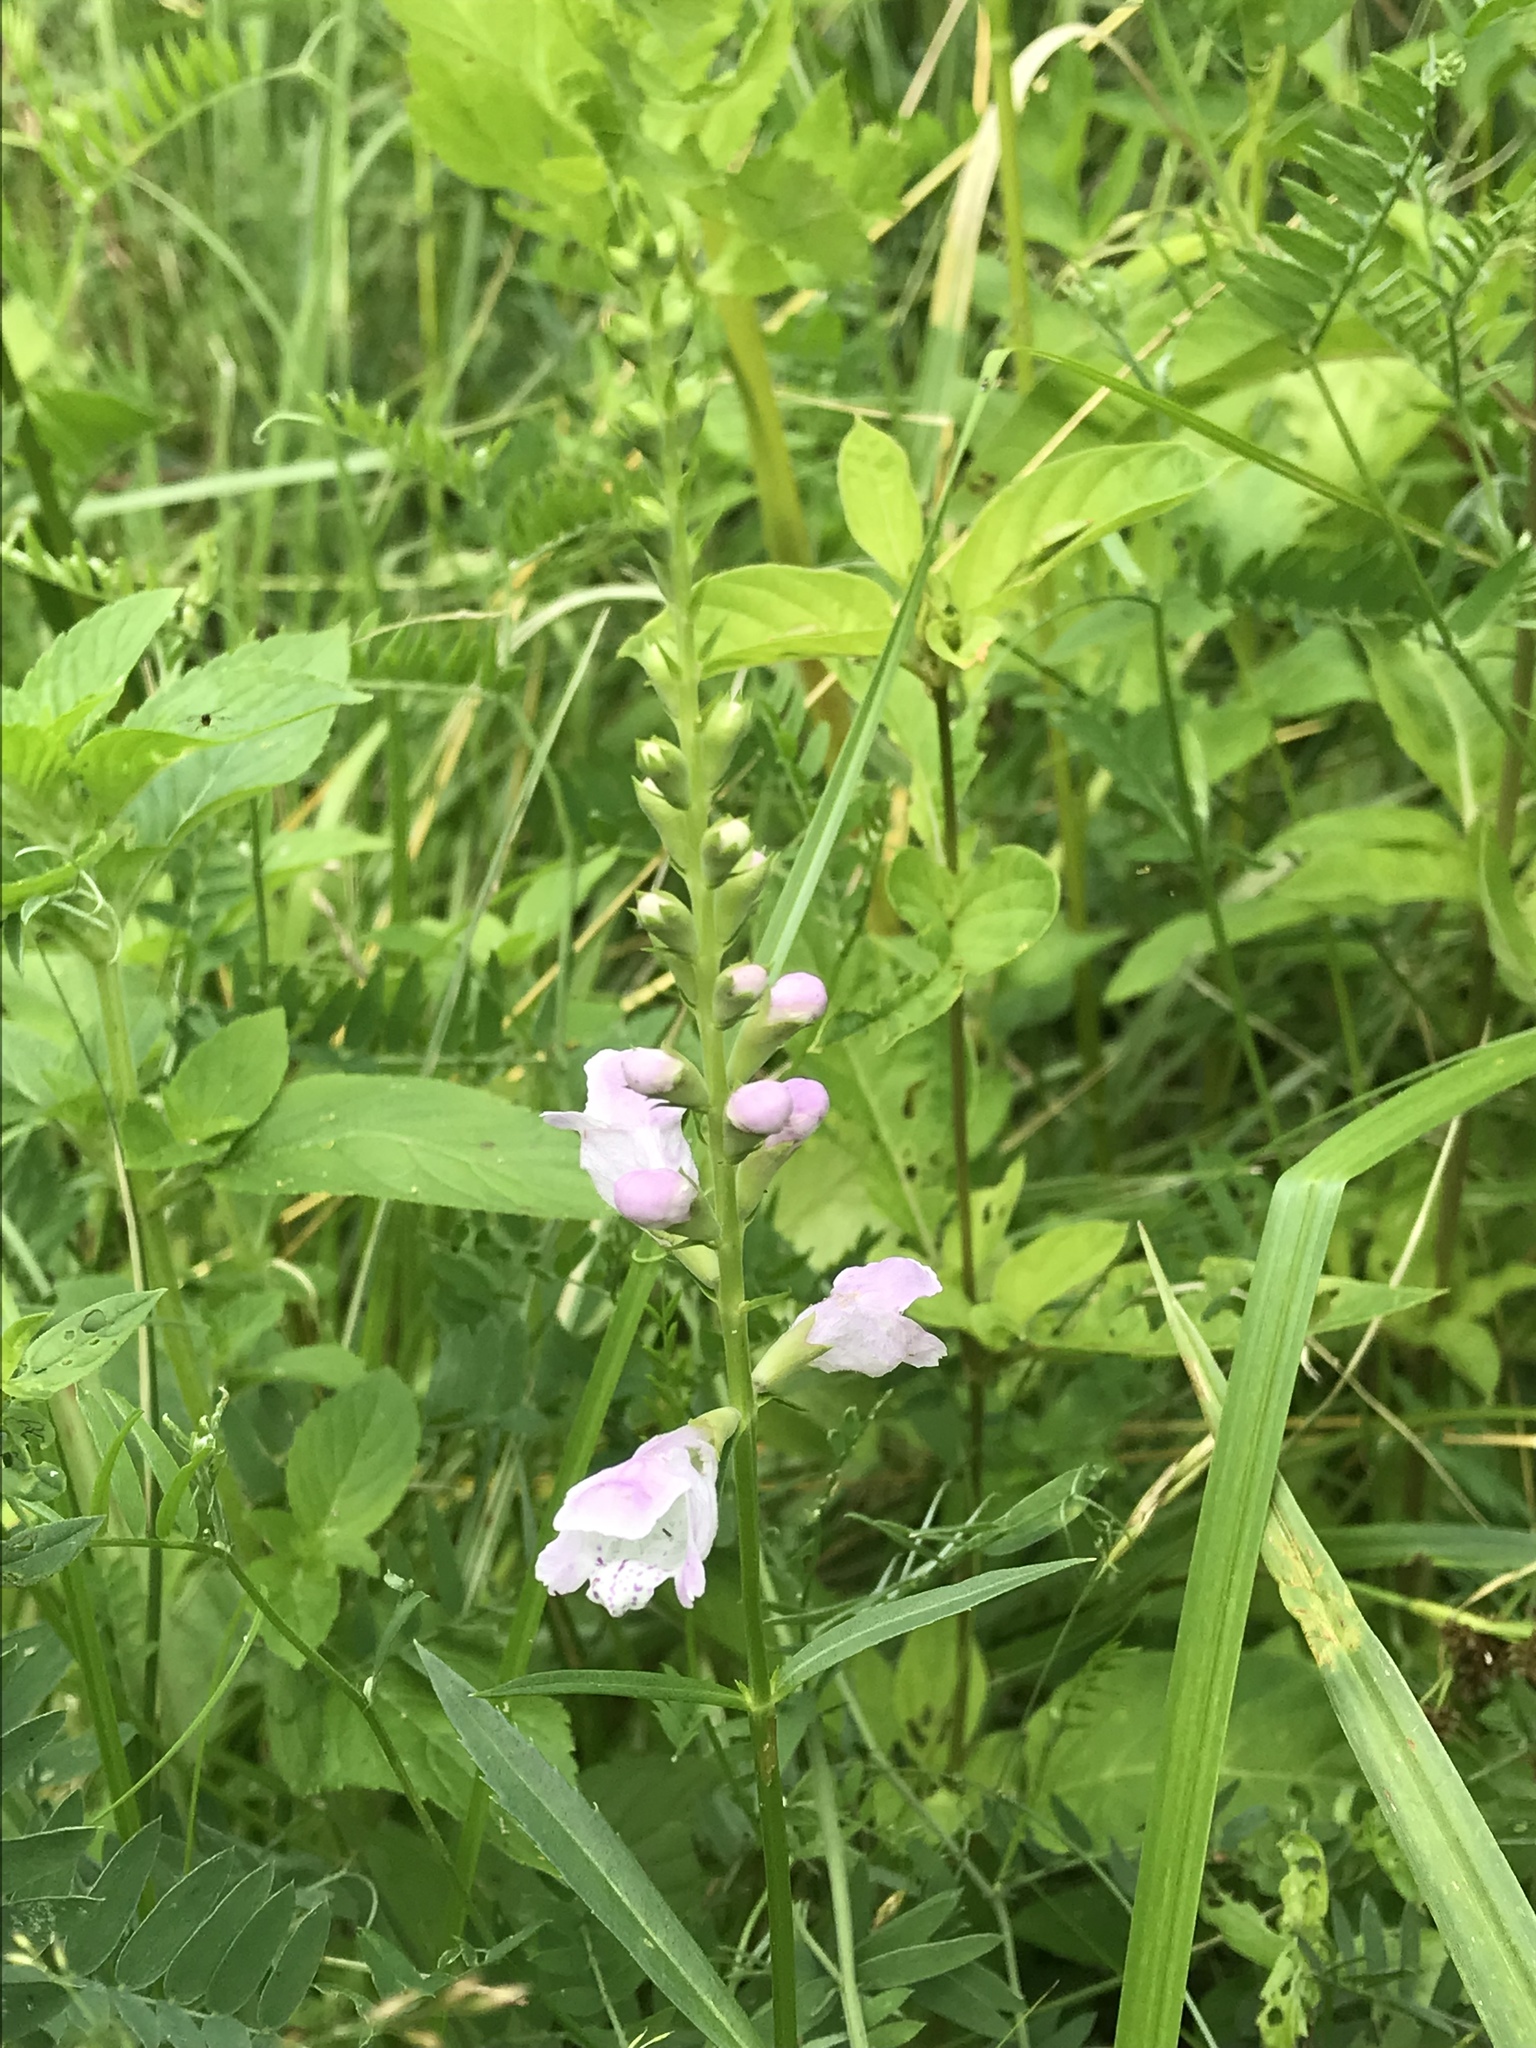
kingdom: Plantae
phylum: Tracheophyta
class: Magnoliopsida
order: Lamiales
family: Lamiaceae
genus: Physostegia
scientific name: Physostegia virginiana
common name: Obedient-plant
